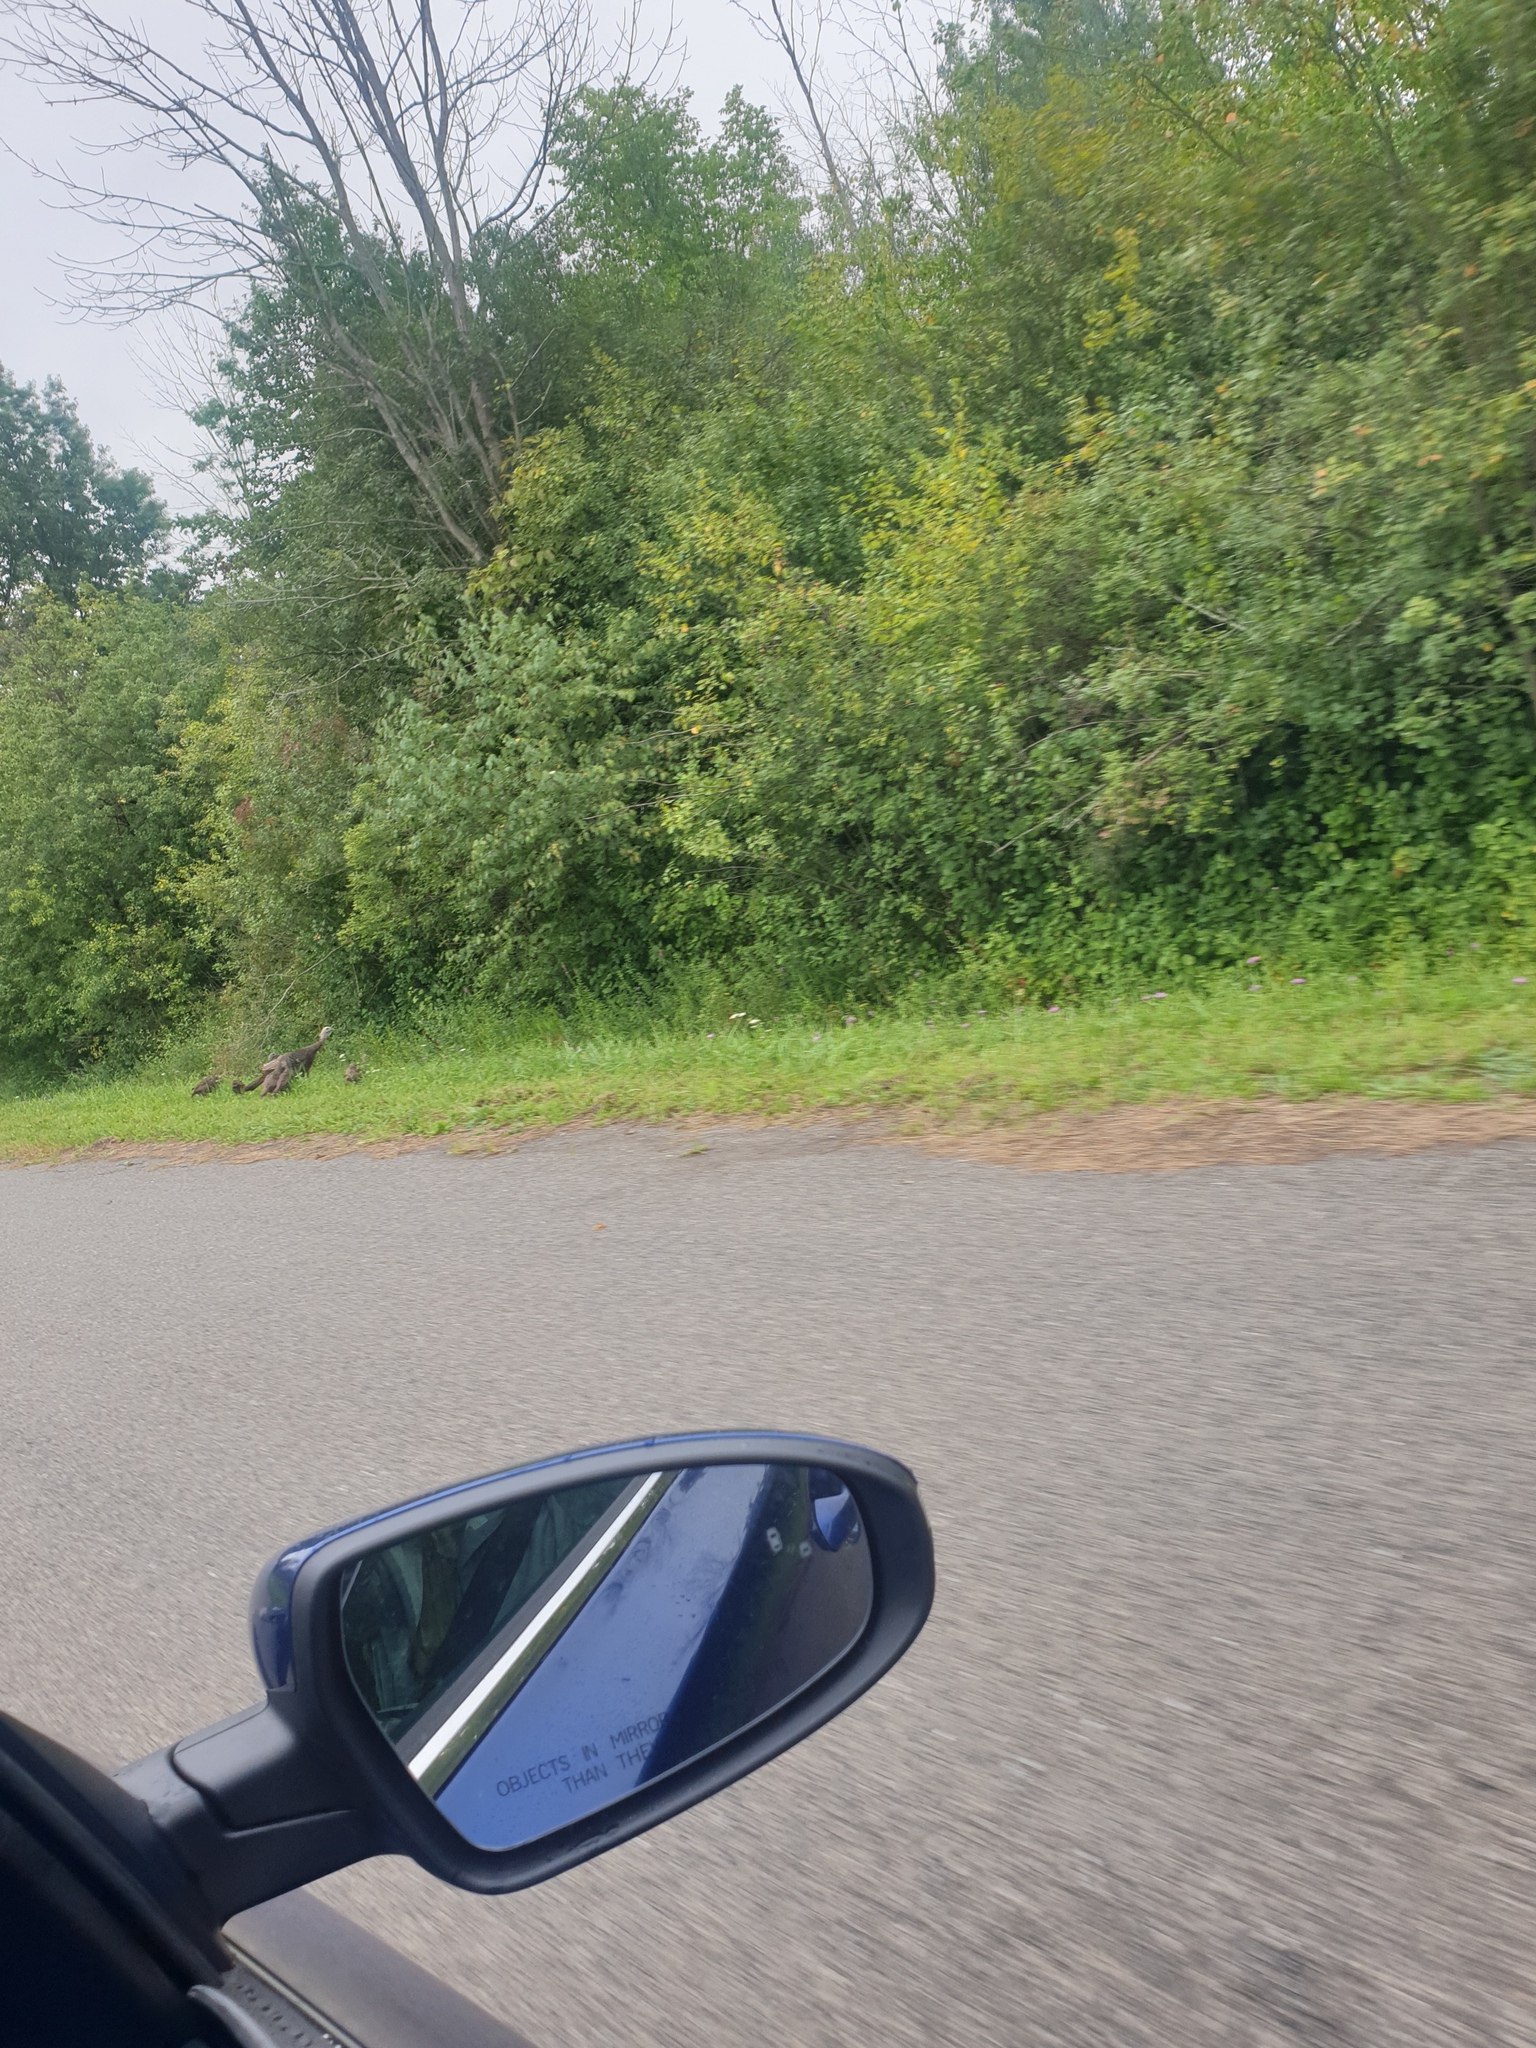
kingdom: Animalia
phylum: Chordata
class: Aves
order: Galliformes
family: Phasianidae
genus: Meleagris
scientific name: Meleagris gallopavo
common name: Wild turkey
